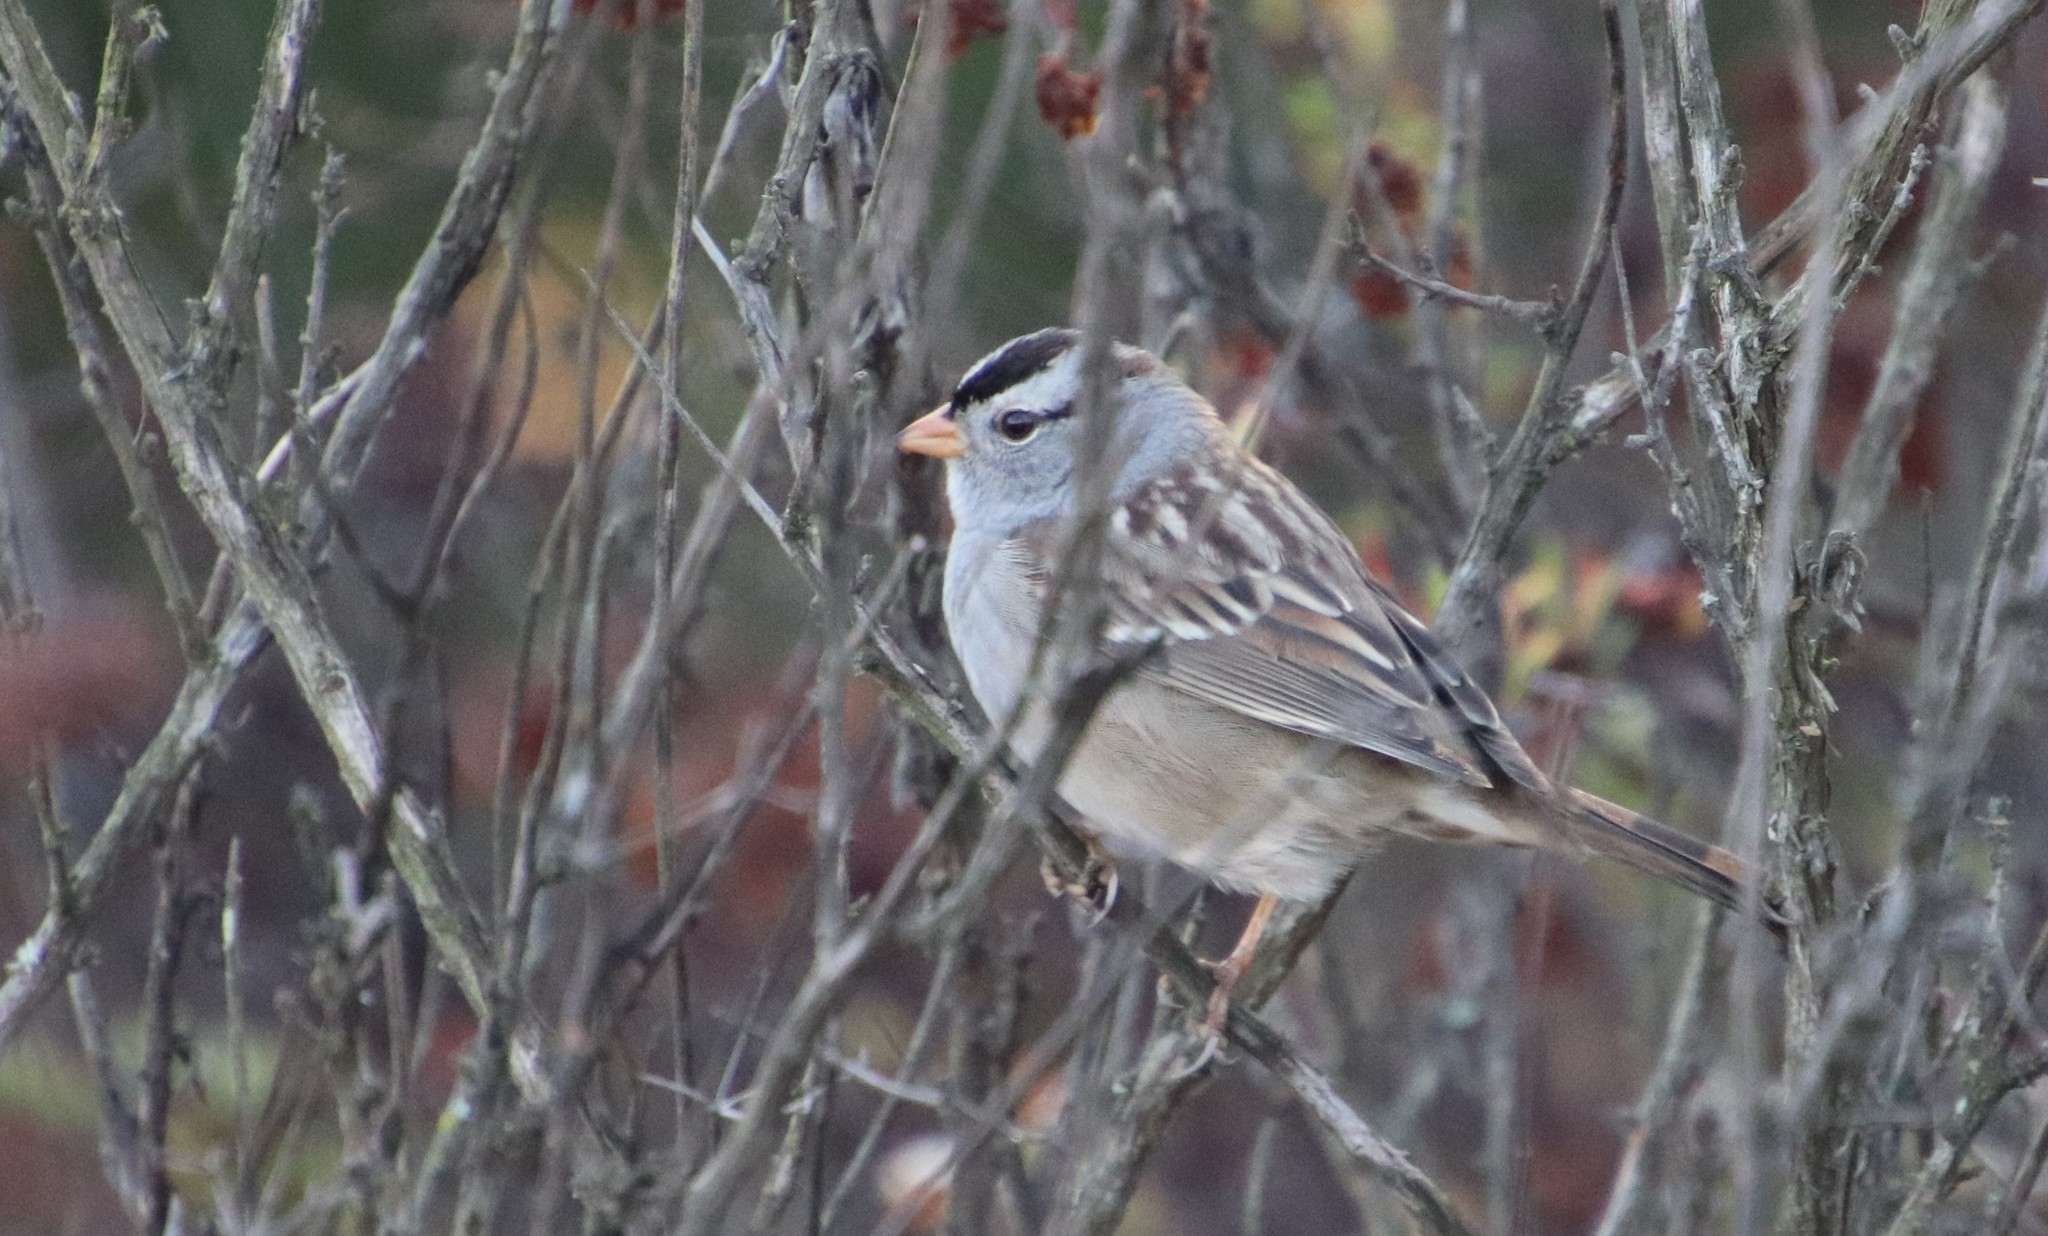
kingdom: Animalia
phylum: Chordata
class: Aves
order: Passeriformes
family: Passerellidae
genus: Zonotrichia
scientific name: Zonotrichia leucophrys
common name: White-crowned sparrow
